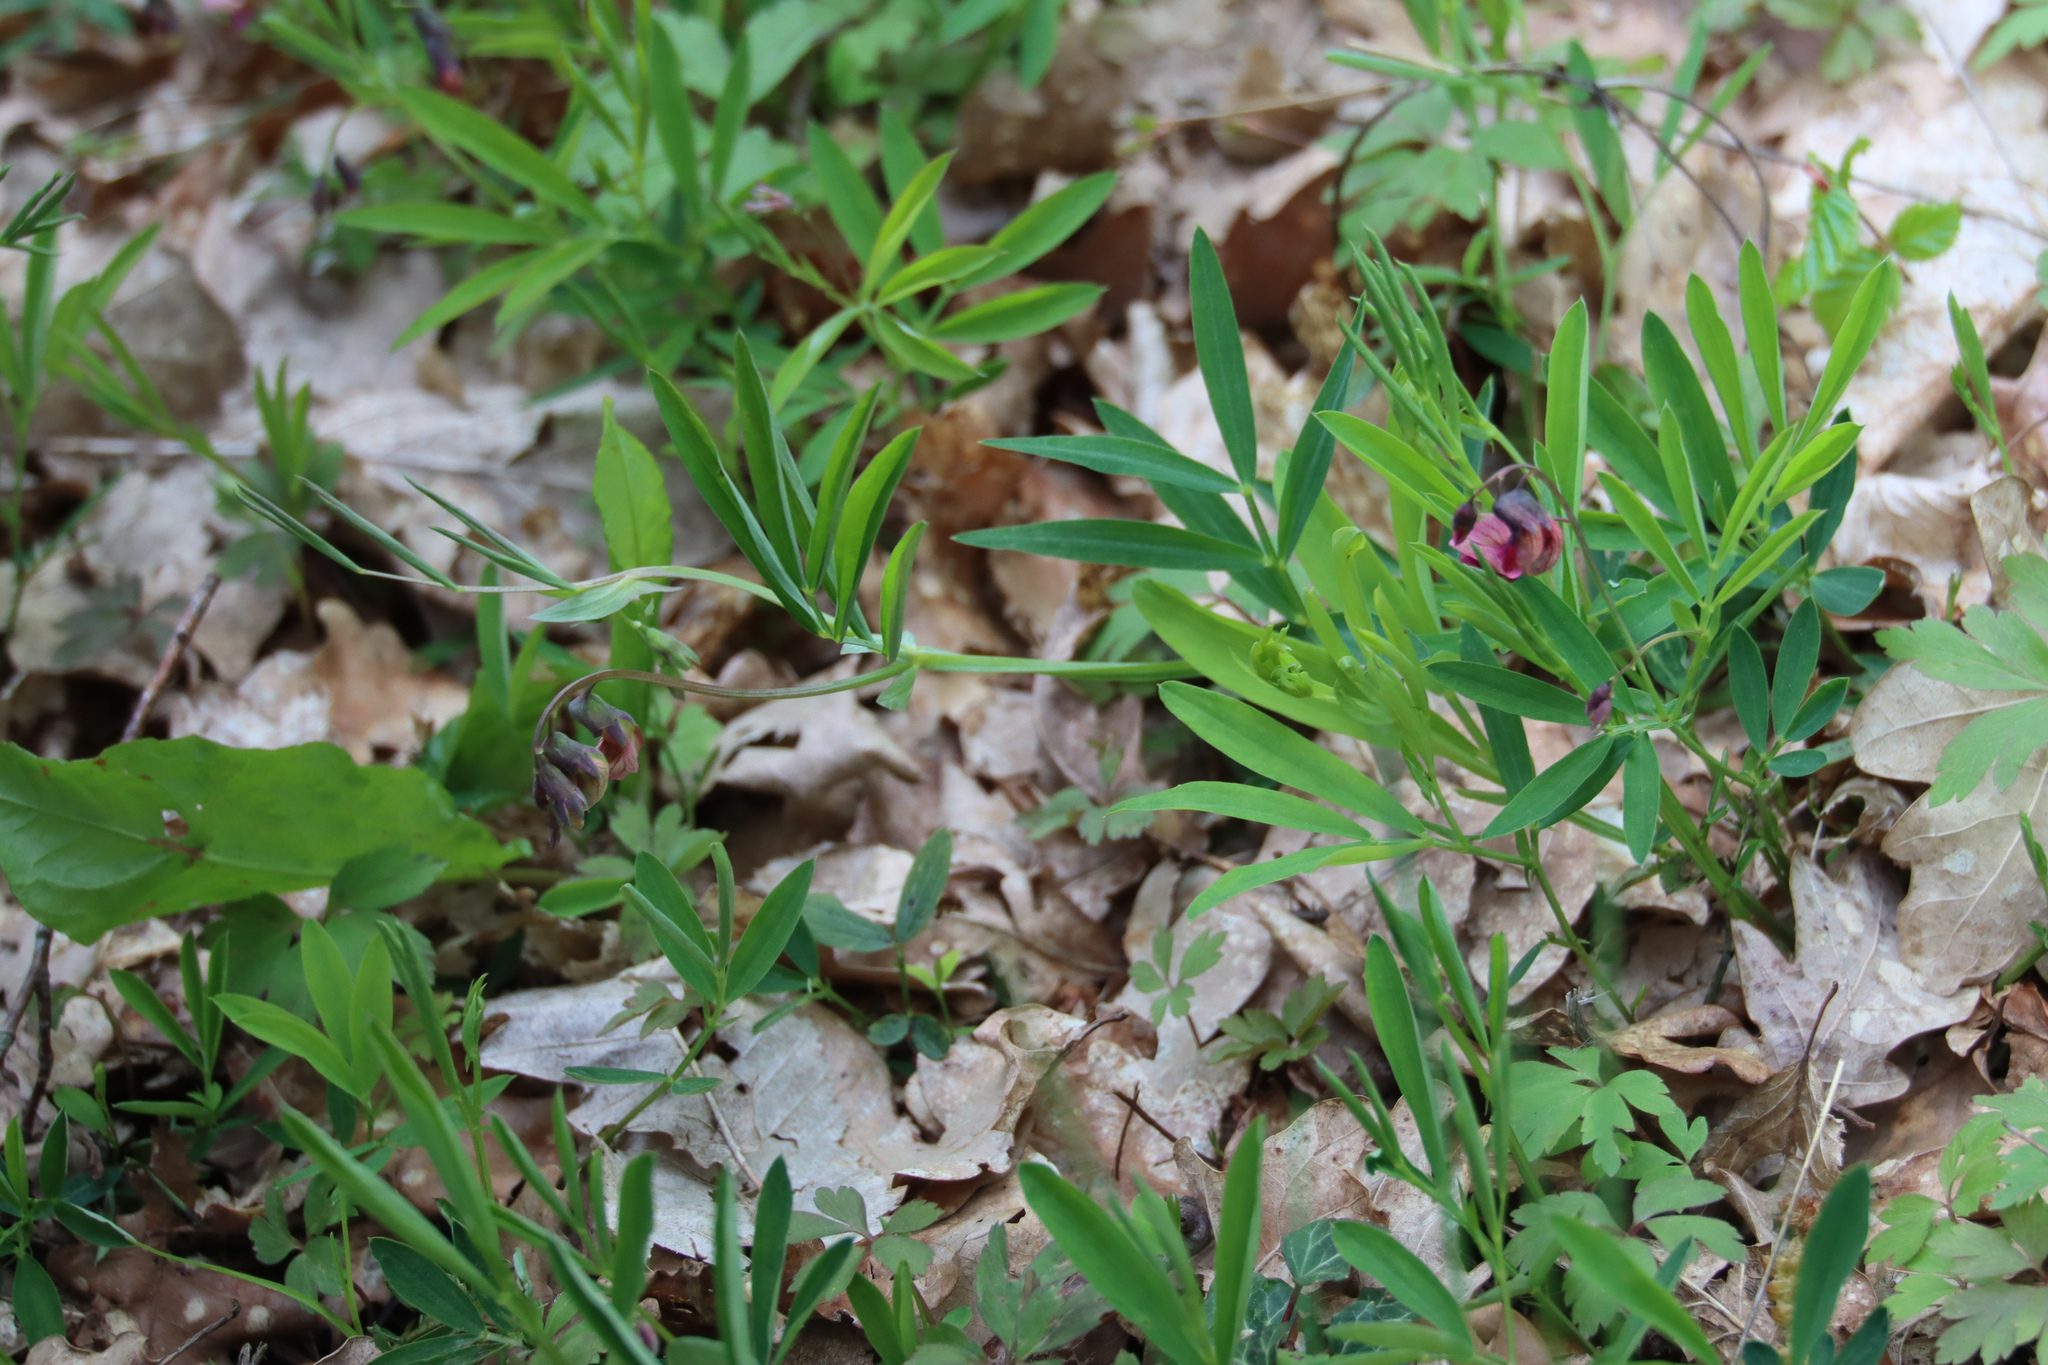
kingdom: Plantae
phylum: Tracheophyta
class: Magnoliopsida
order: Fabales
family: Fabaceae
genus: Lathyrus
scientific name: Lathyrus linifolius
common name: Bitter-vetch
